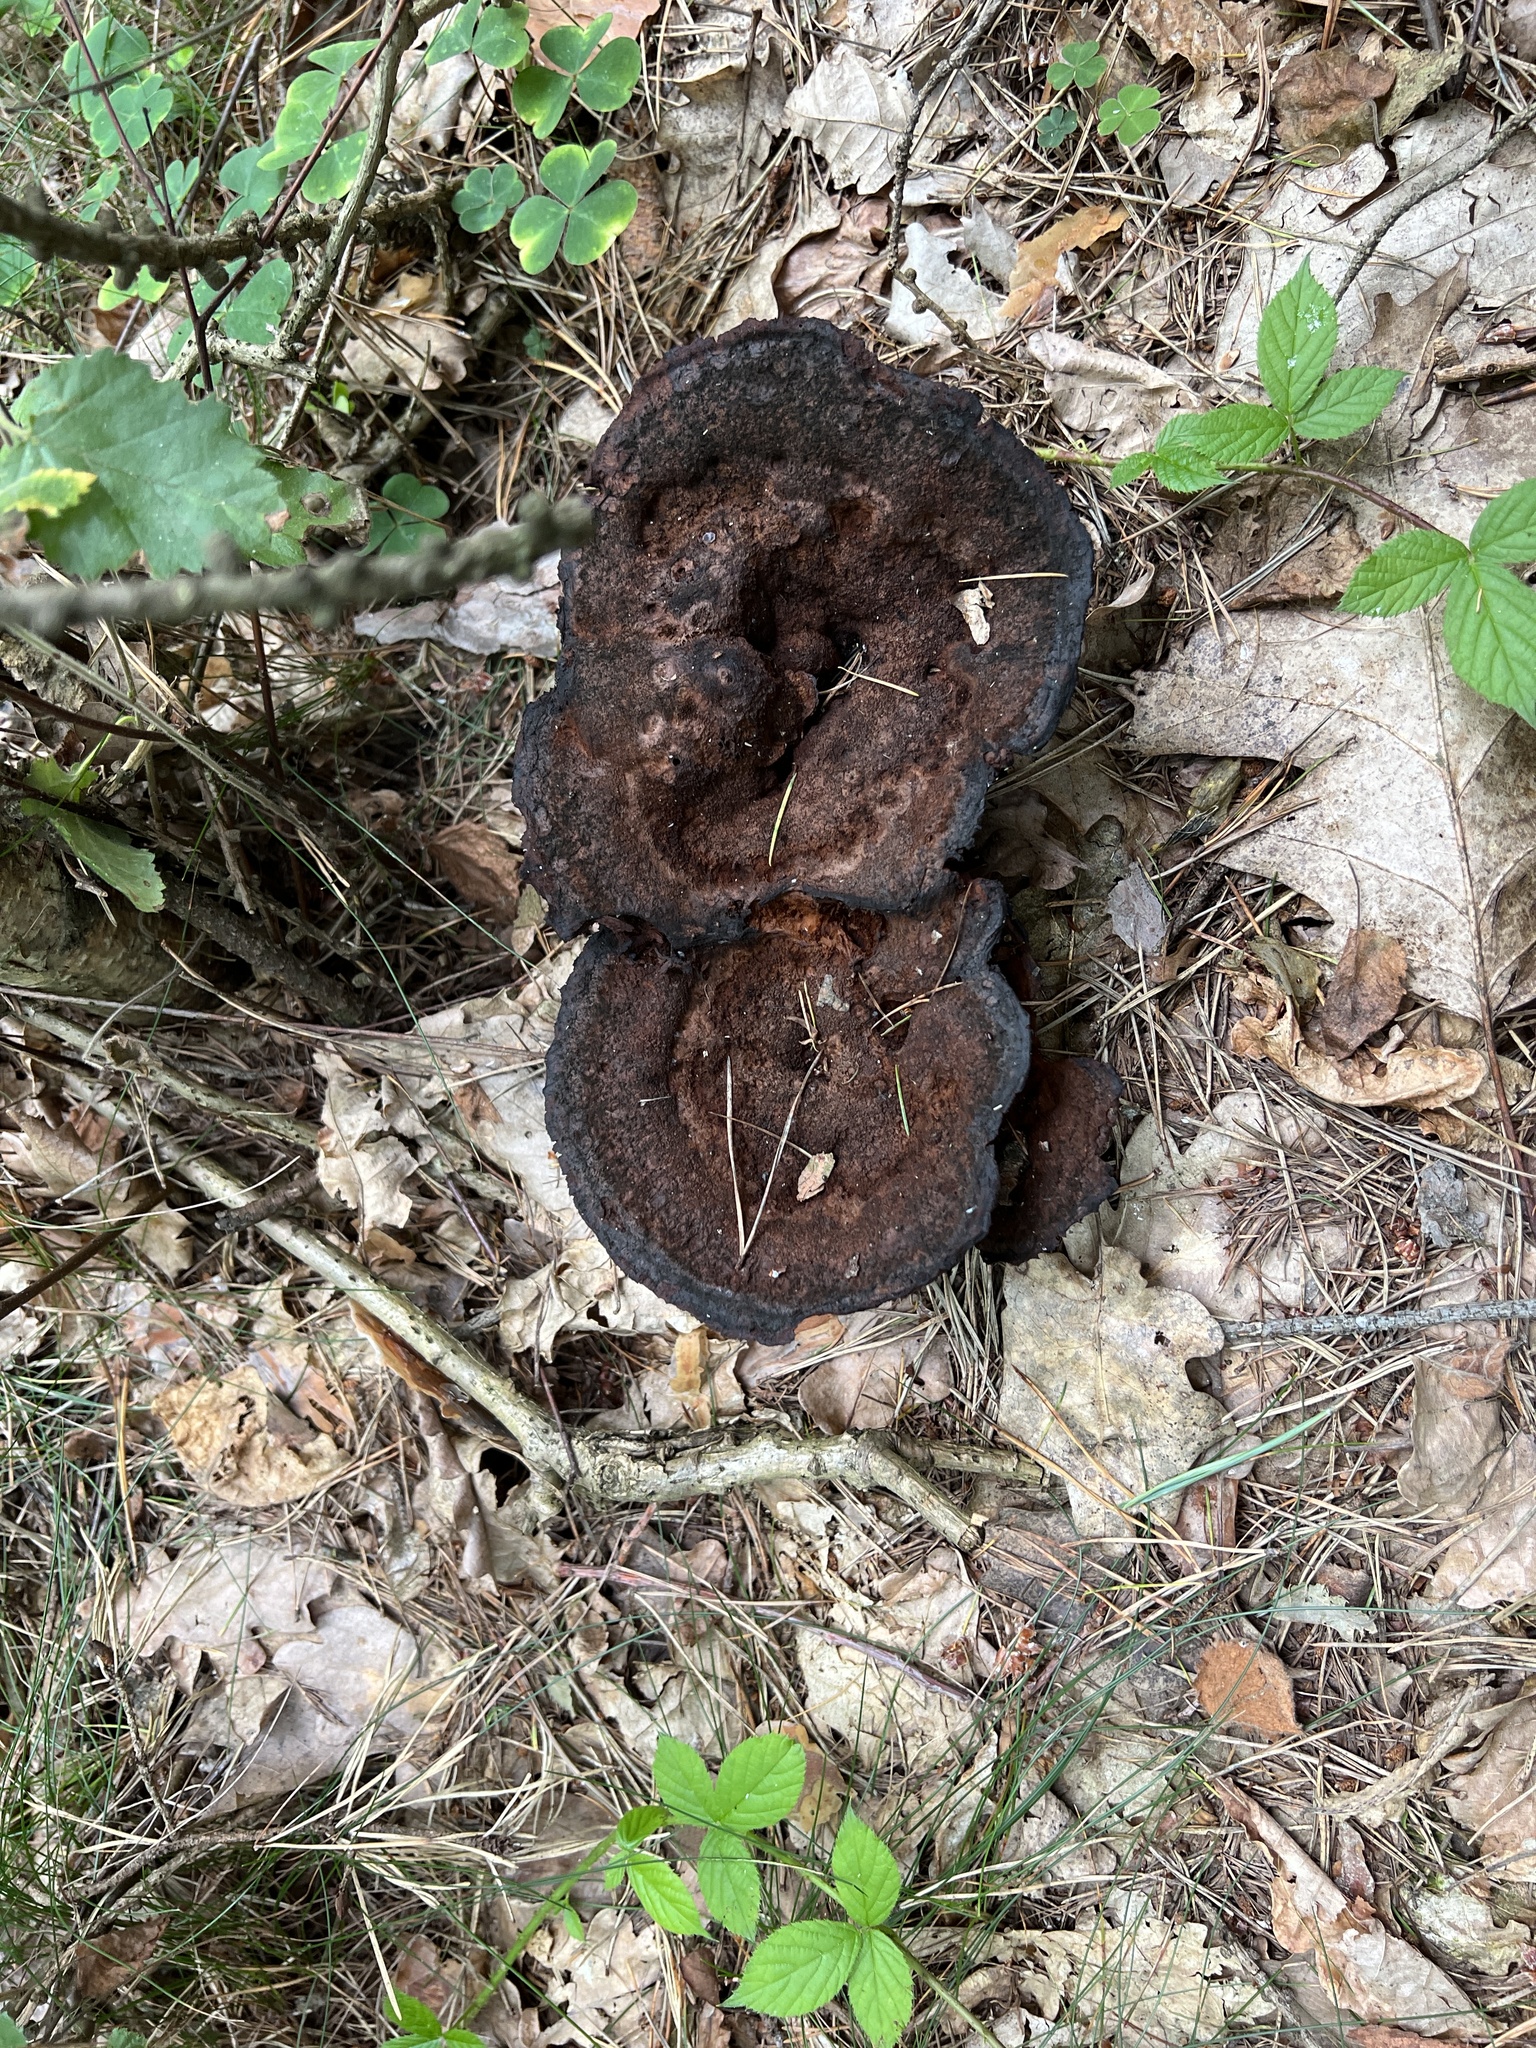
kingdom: Fungi
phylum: Basidiomycota
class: Agaricomycetes
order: Polyporales
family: Laetiporaceae
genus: Phaeolus
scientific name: Phaeolus schweinitzii
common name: Dyer's mazegill
